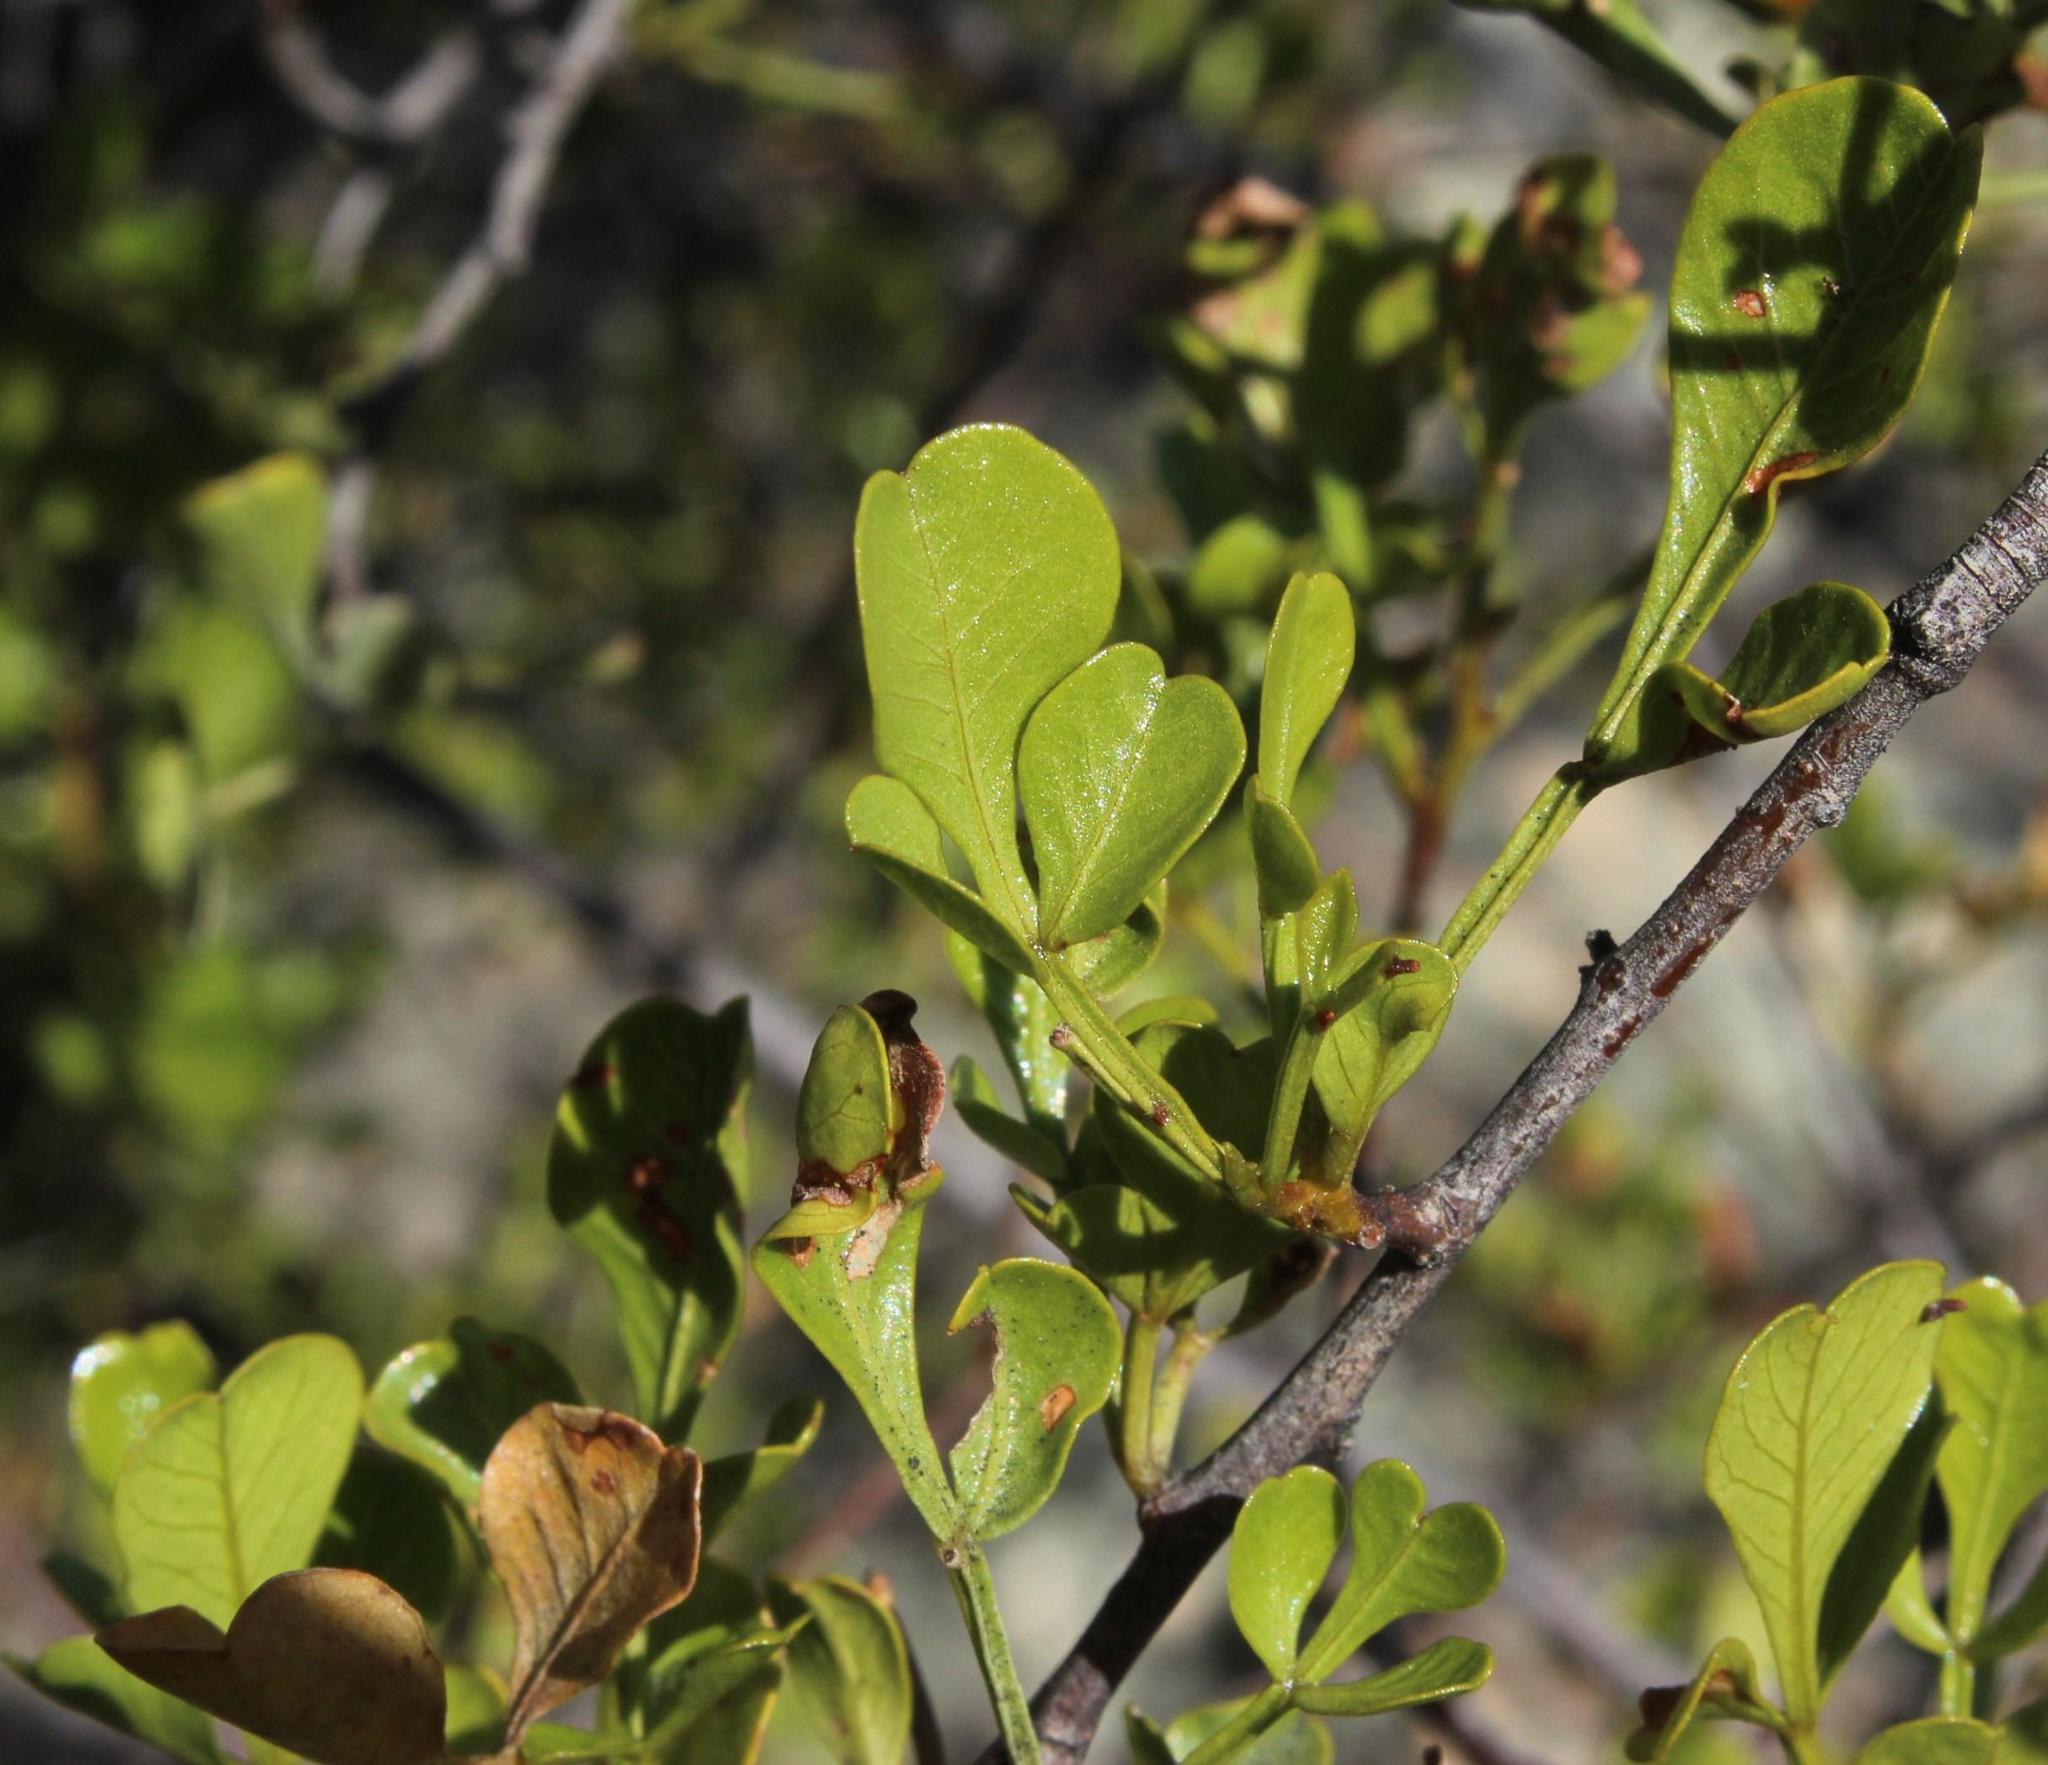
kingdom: Plantae
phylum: Tracheophyta
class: Magnoliopsida
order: Sapindales
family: Anacardiaceae
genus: Searsia
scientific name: Searsia undulata
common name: Namaqua kunibush
